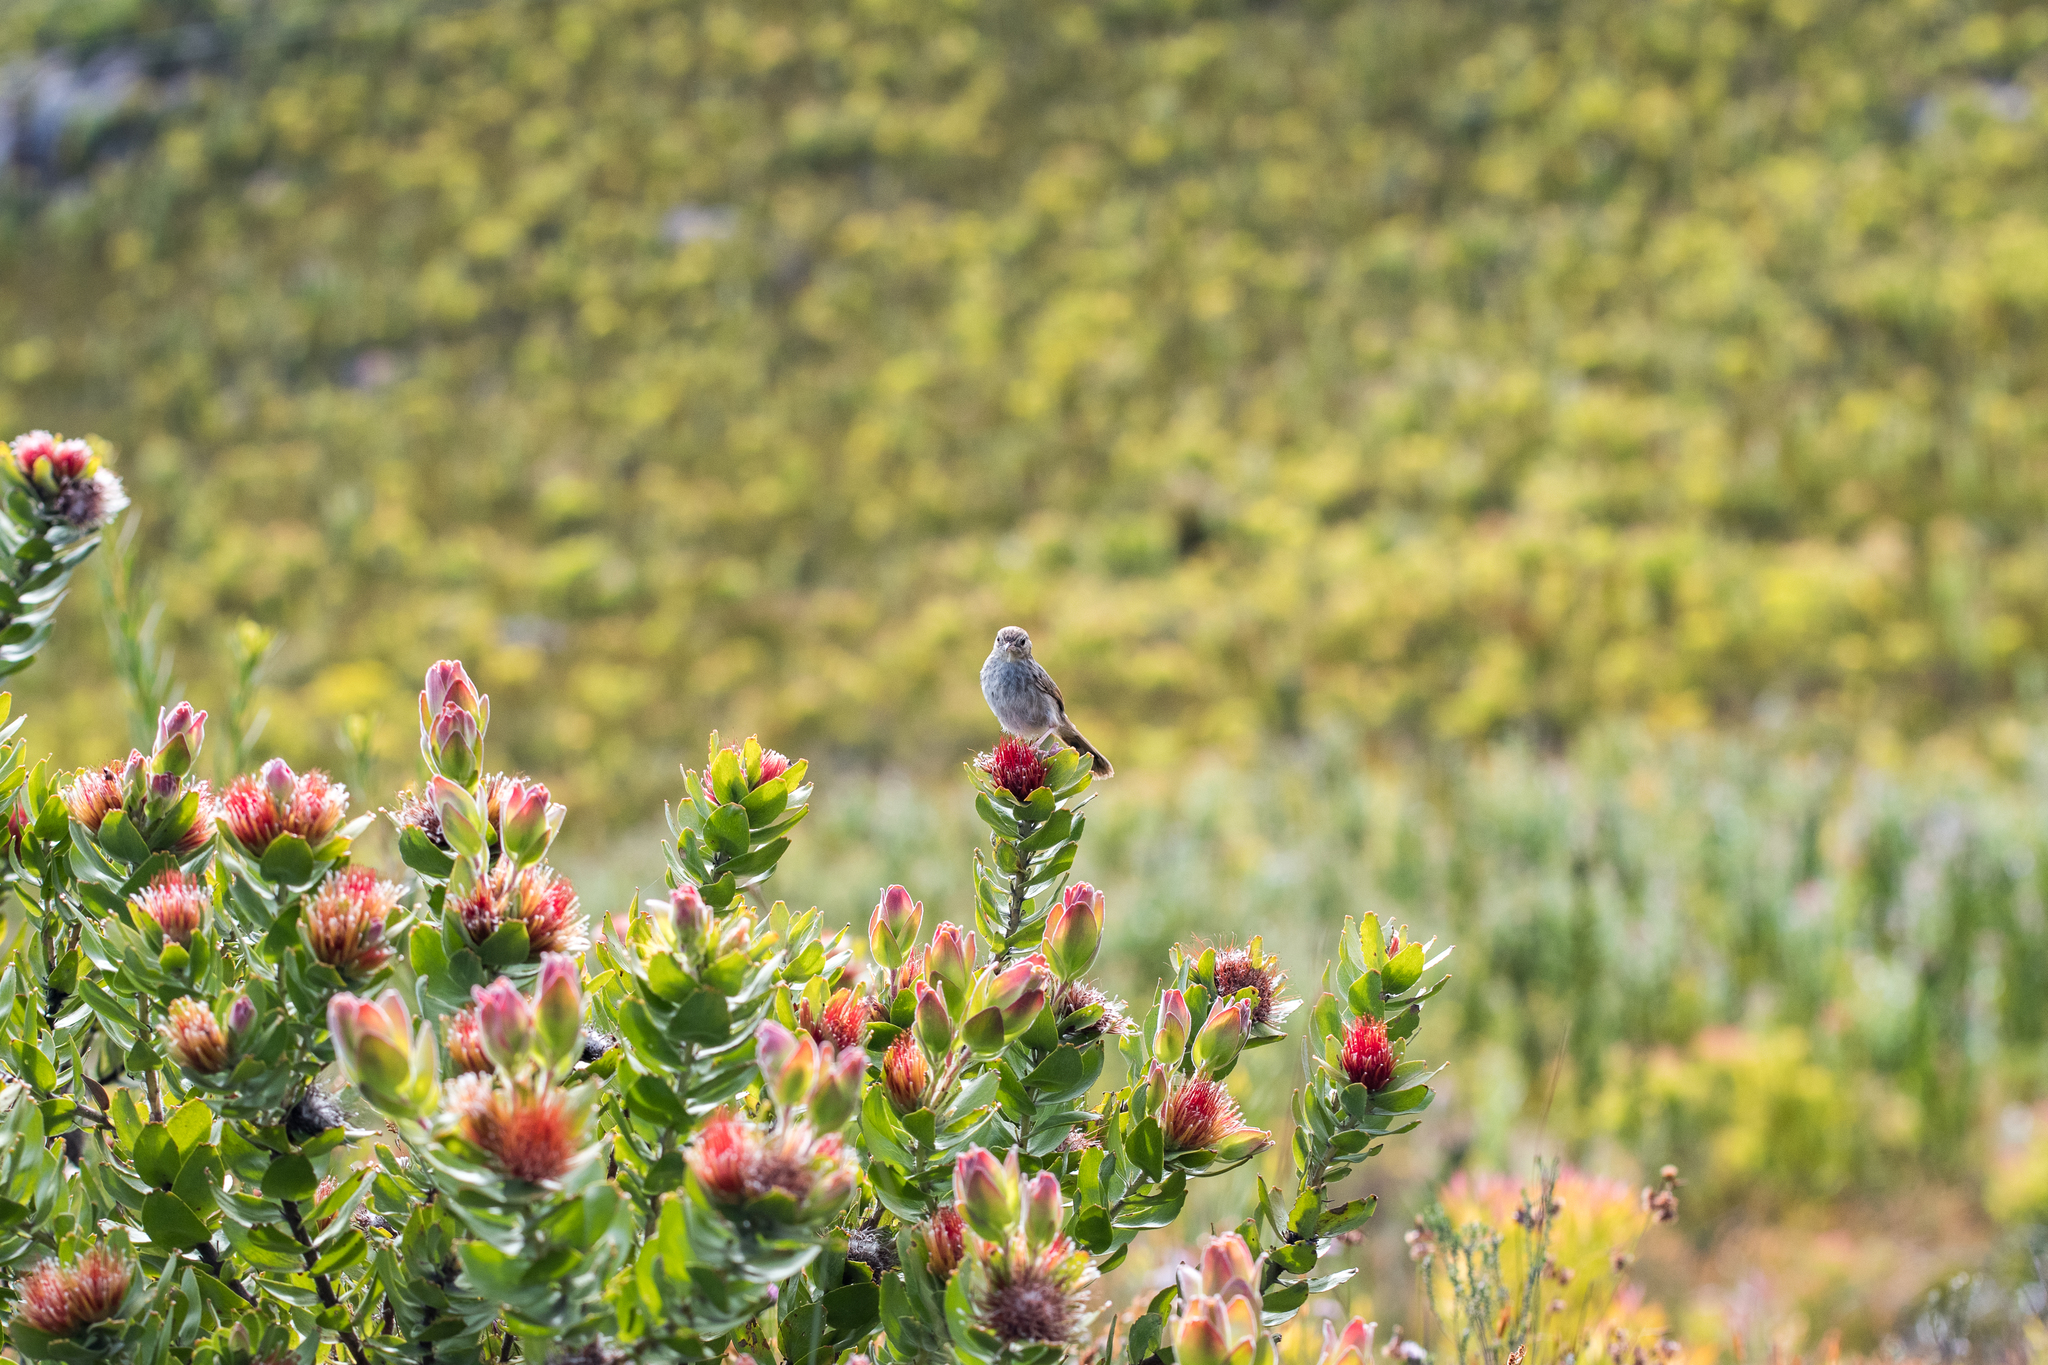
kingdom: Plantae
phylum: Tracheophyta
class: Magnoliopsida
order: Proteales
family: Proteaceae
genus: Leucospermum
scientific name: Leucospermum oleifolium
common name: Matches
